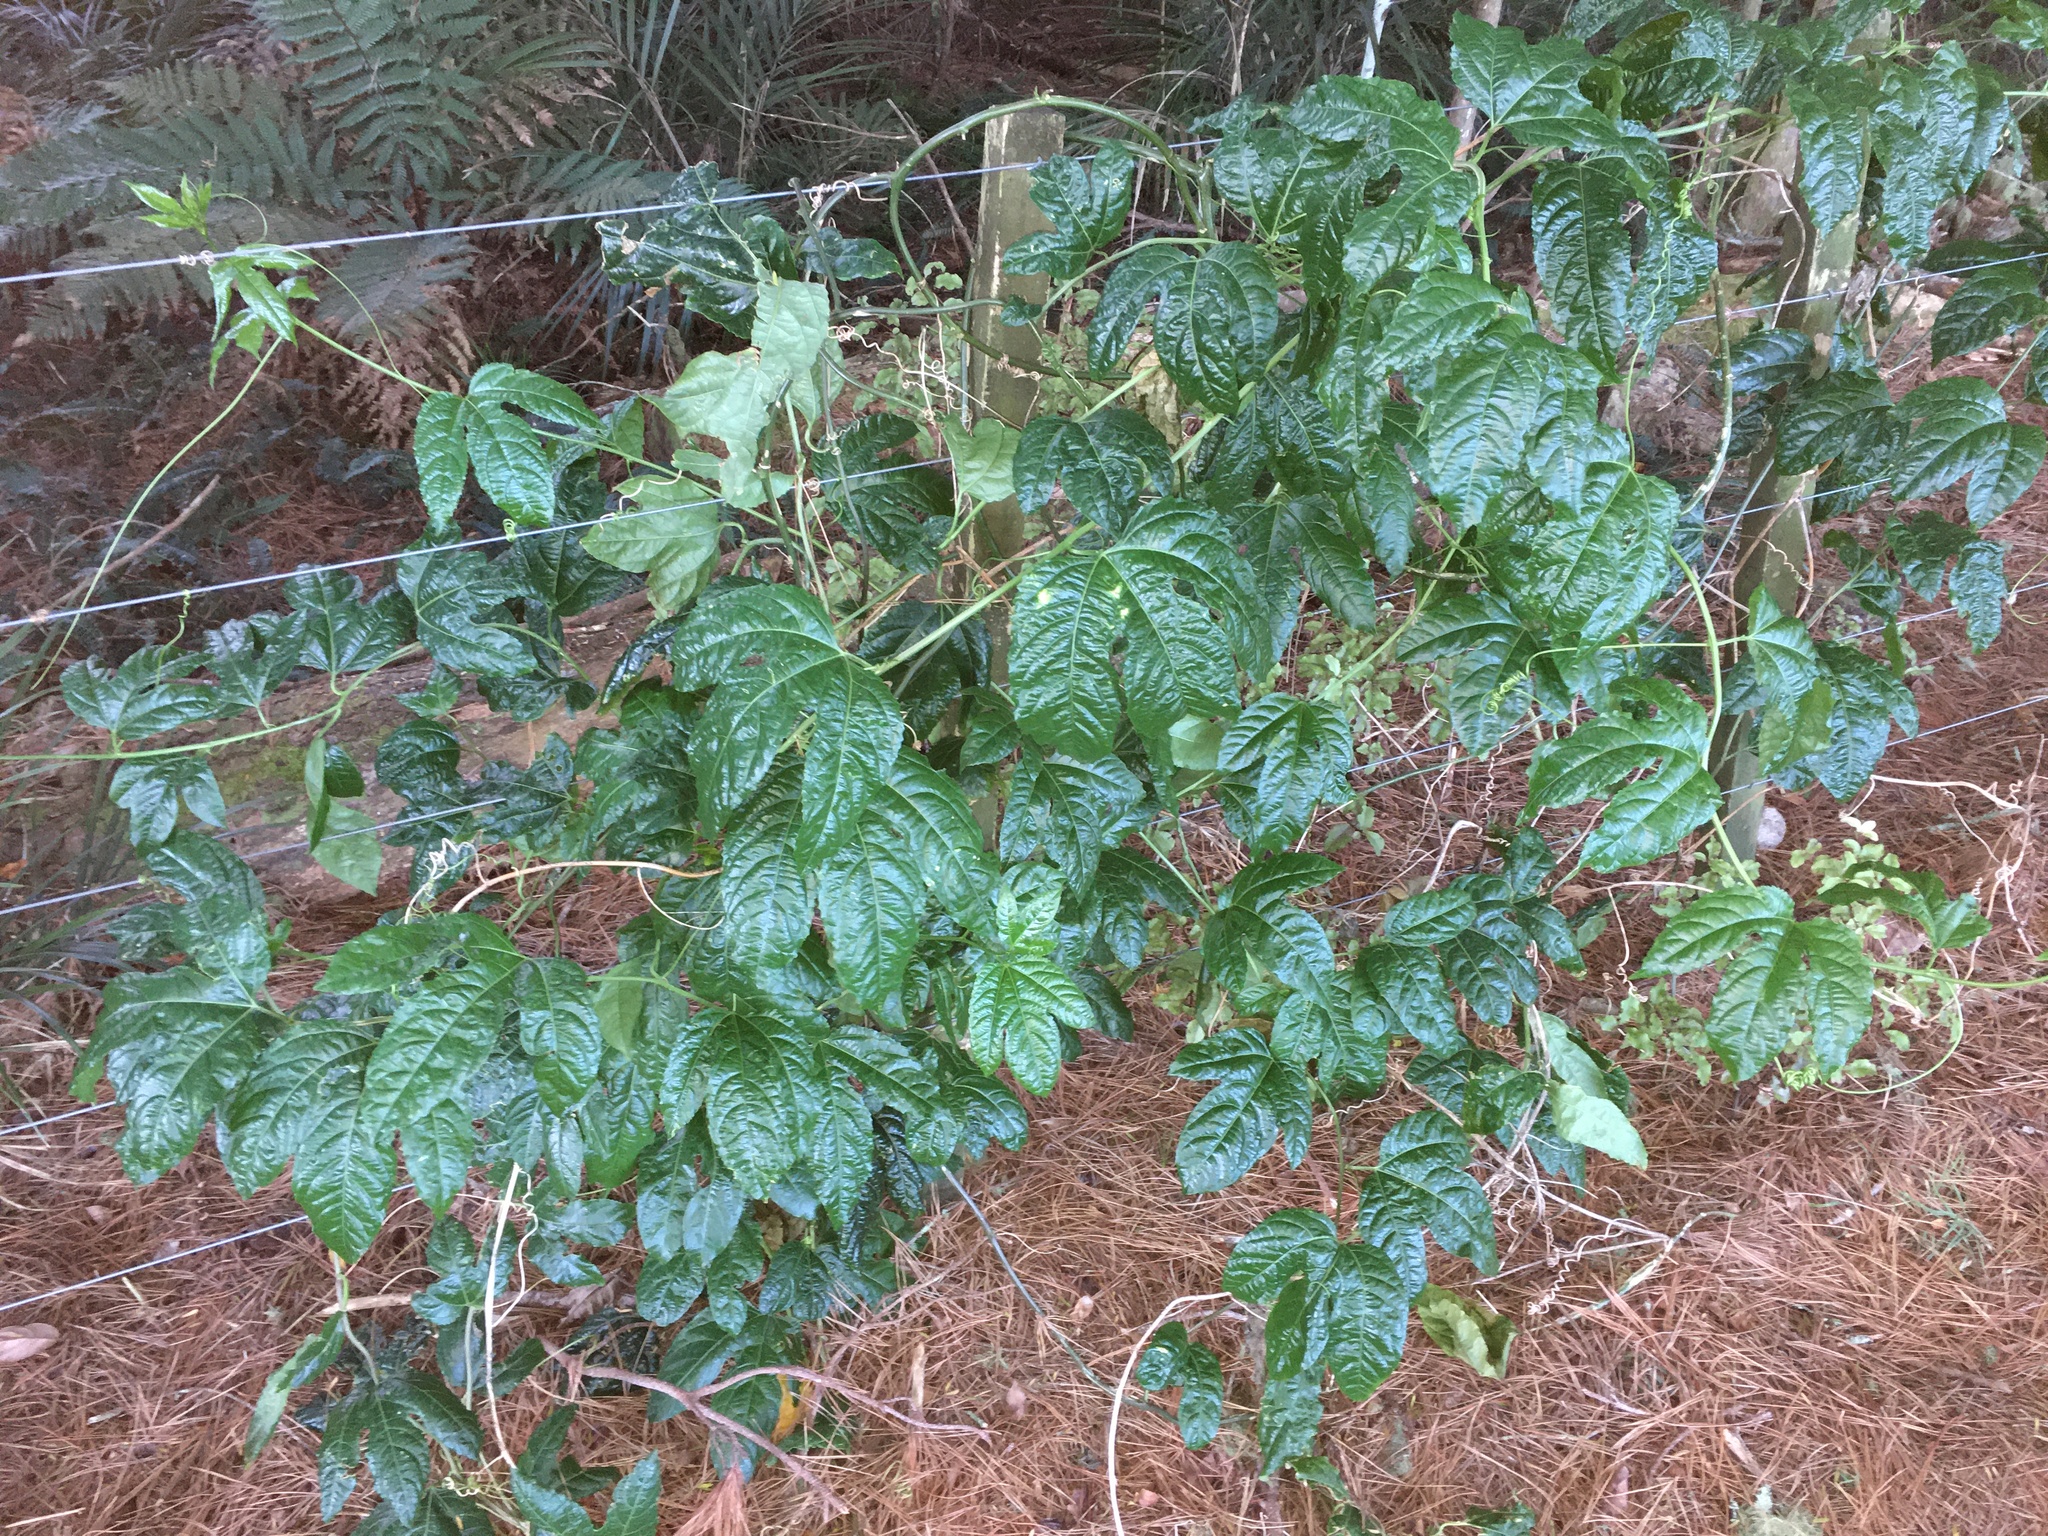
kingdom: Plantae
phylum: Tracheophyta
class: Magnoliopsida
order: Malpighiales
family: Passifloraceae
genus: Passiflora
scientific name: Passiflora edulis
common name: Purple granadilla
